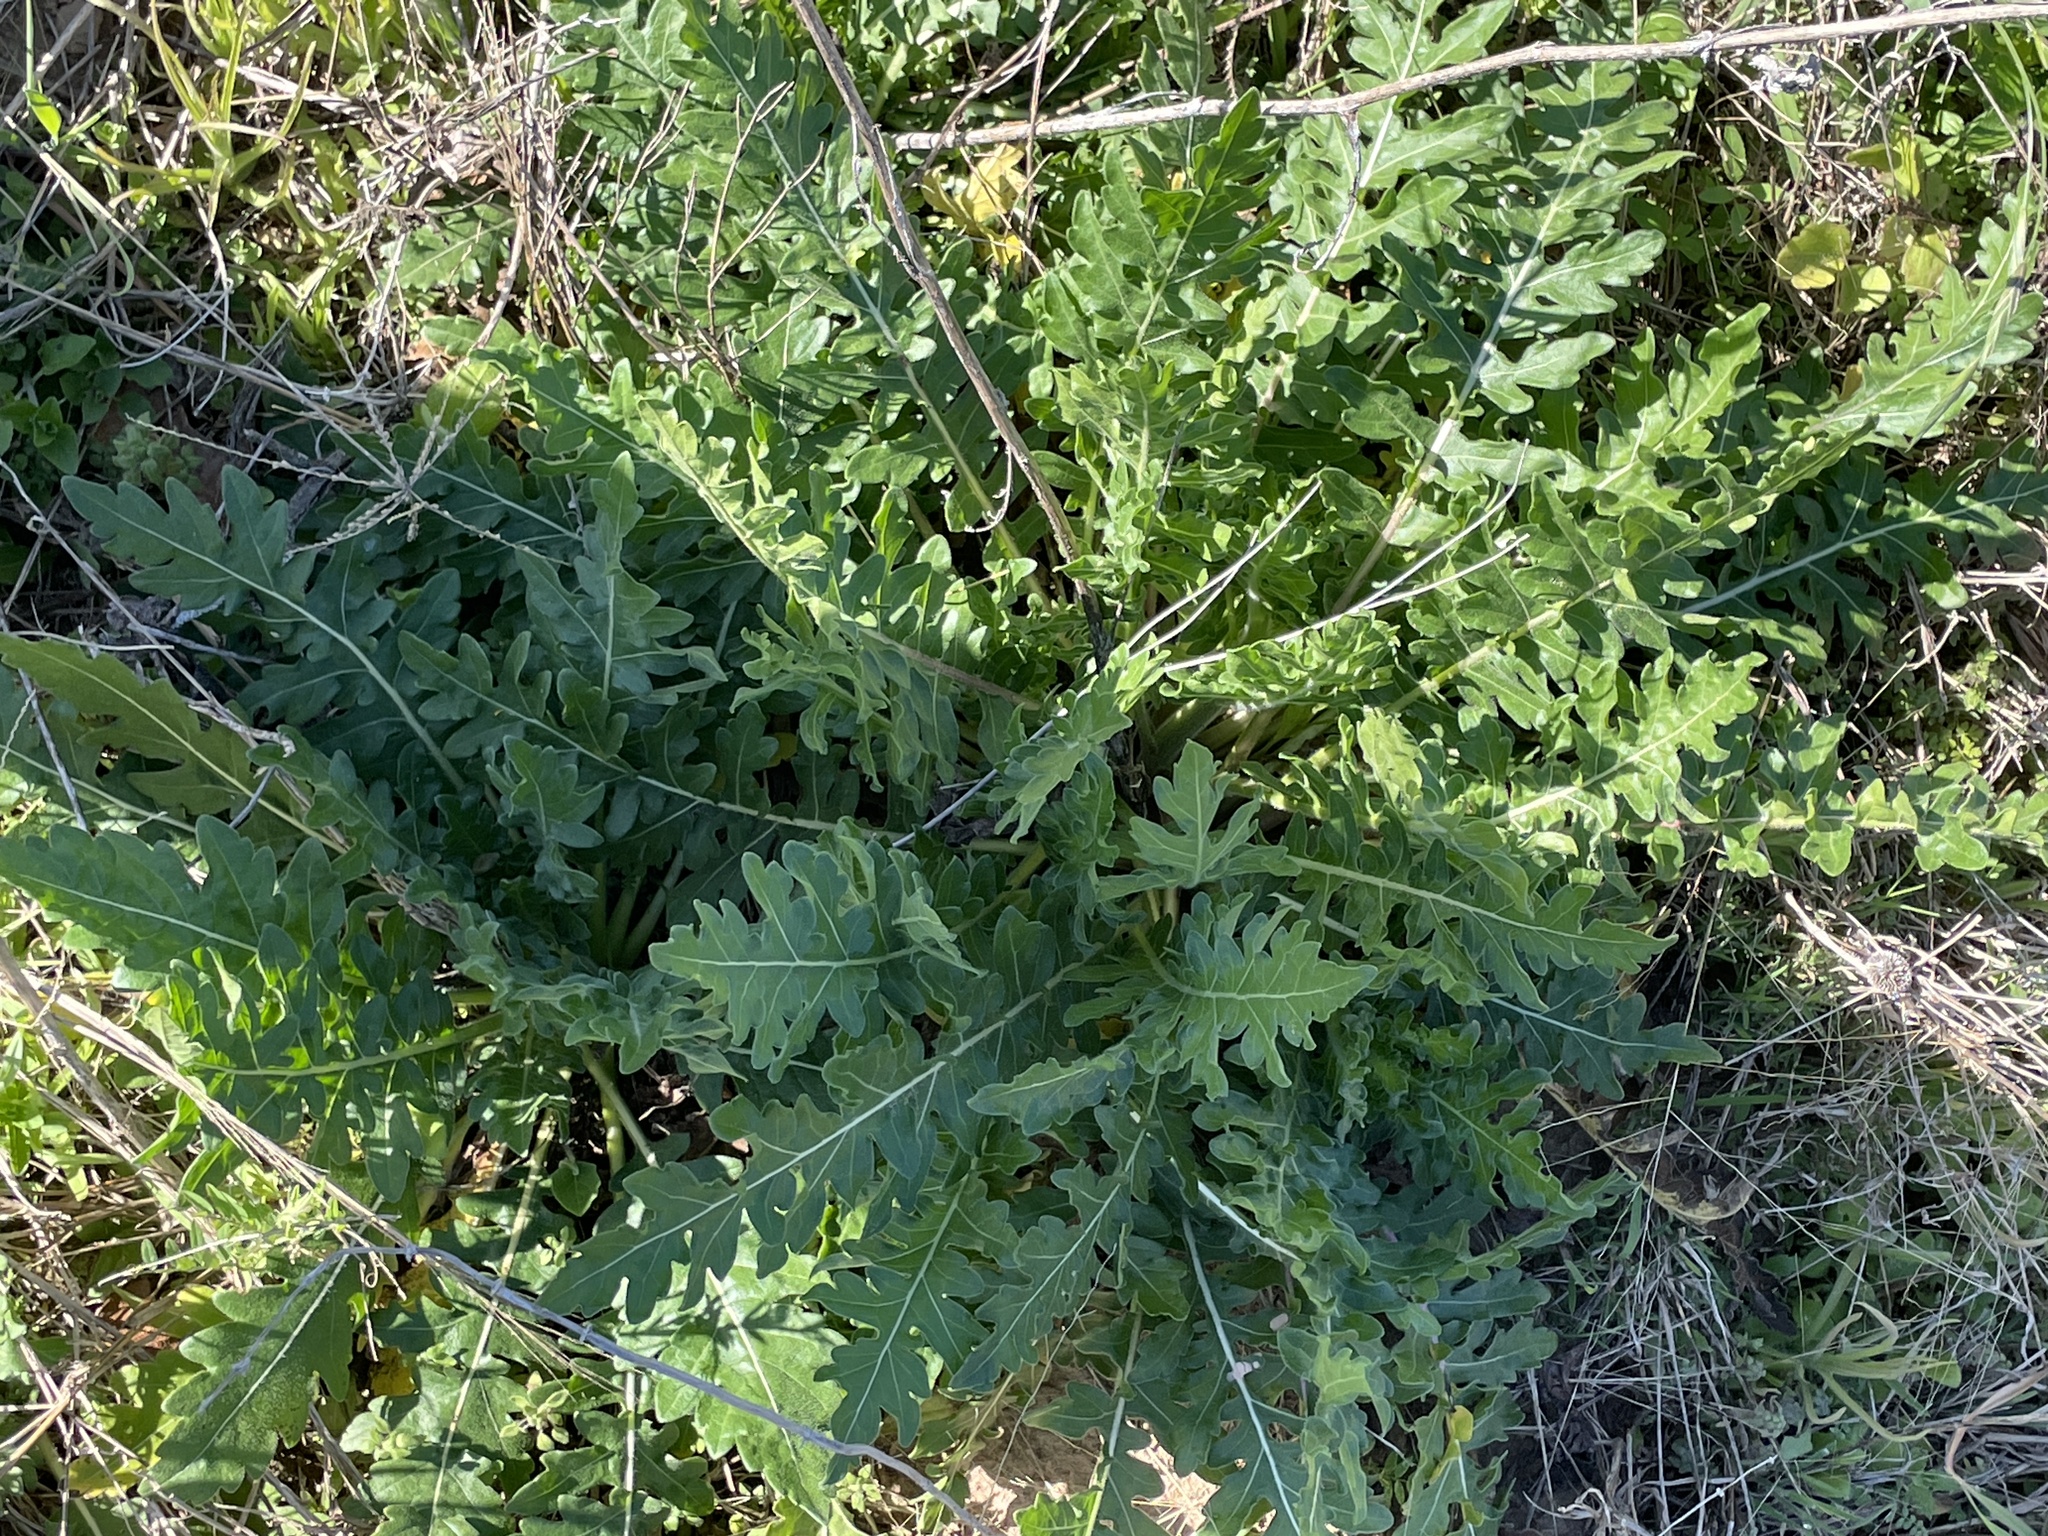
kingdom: Plantae
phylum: Tracheophyta
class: Magnoliopsida
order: Asterales
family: Asteraceae
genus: Engelmannia
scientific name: Engelmannia peristenia
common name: Engelmann's daisy
